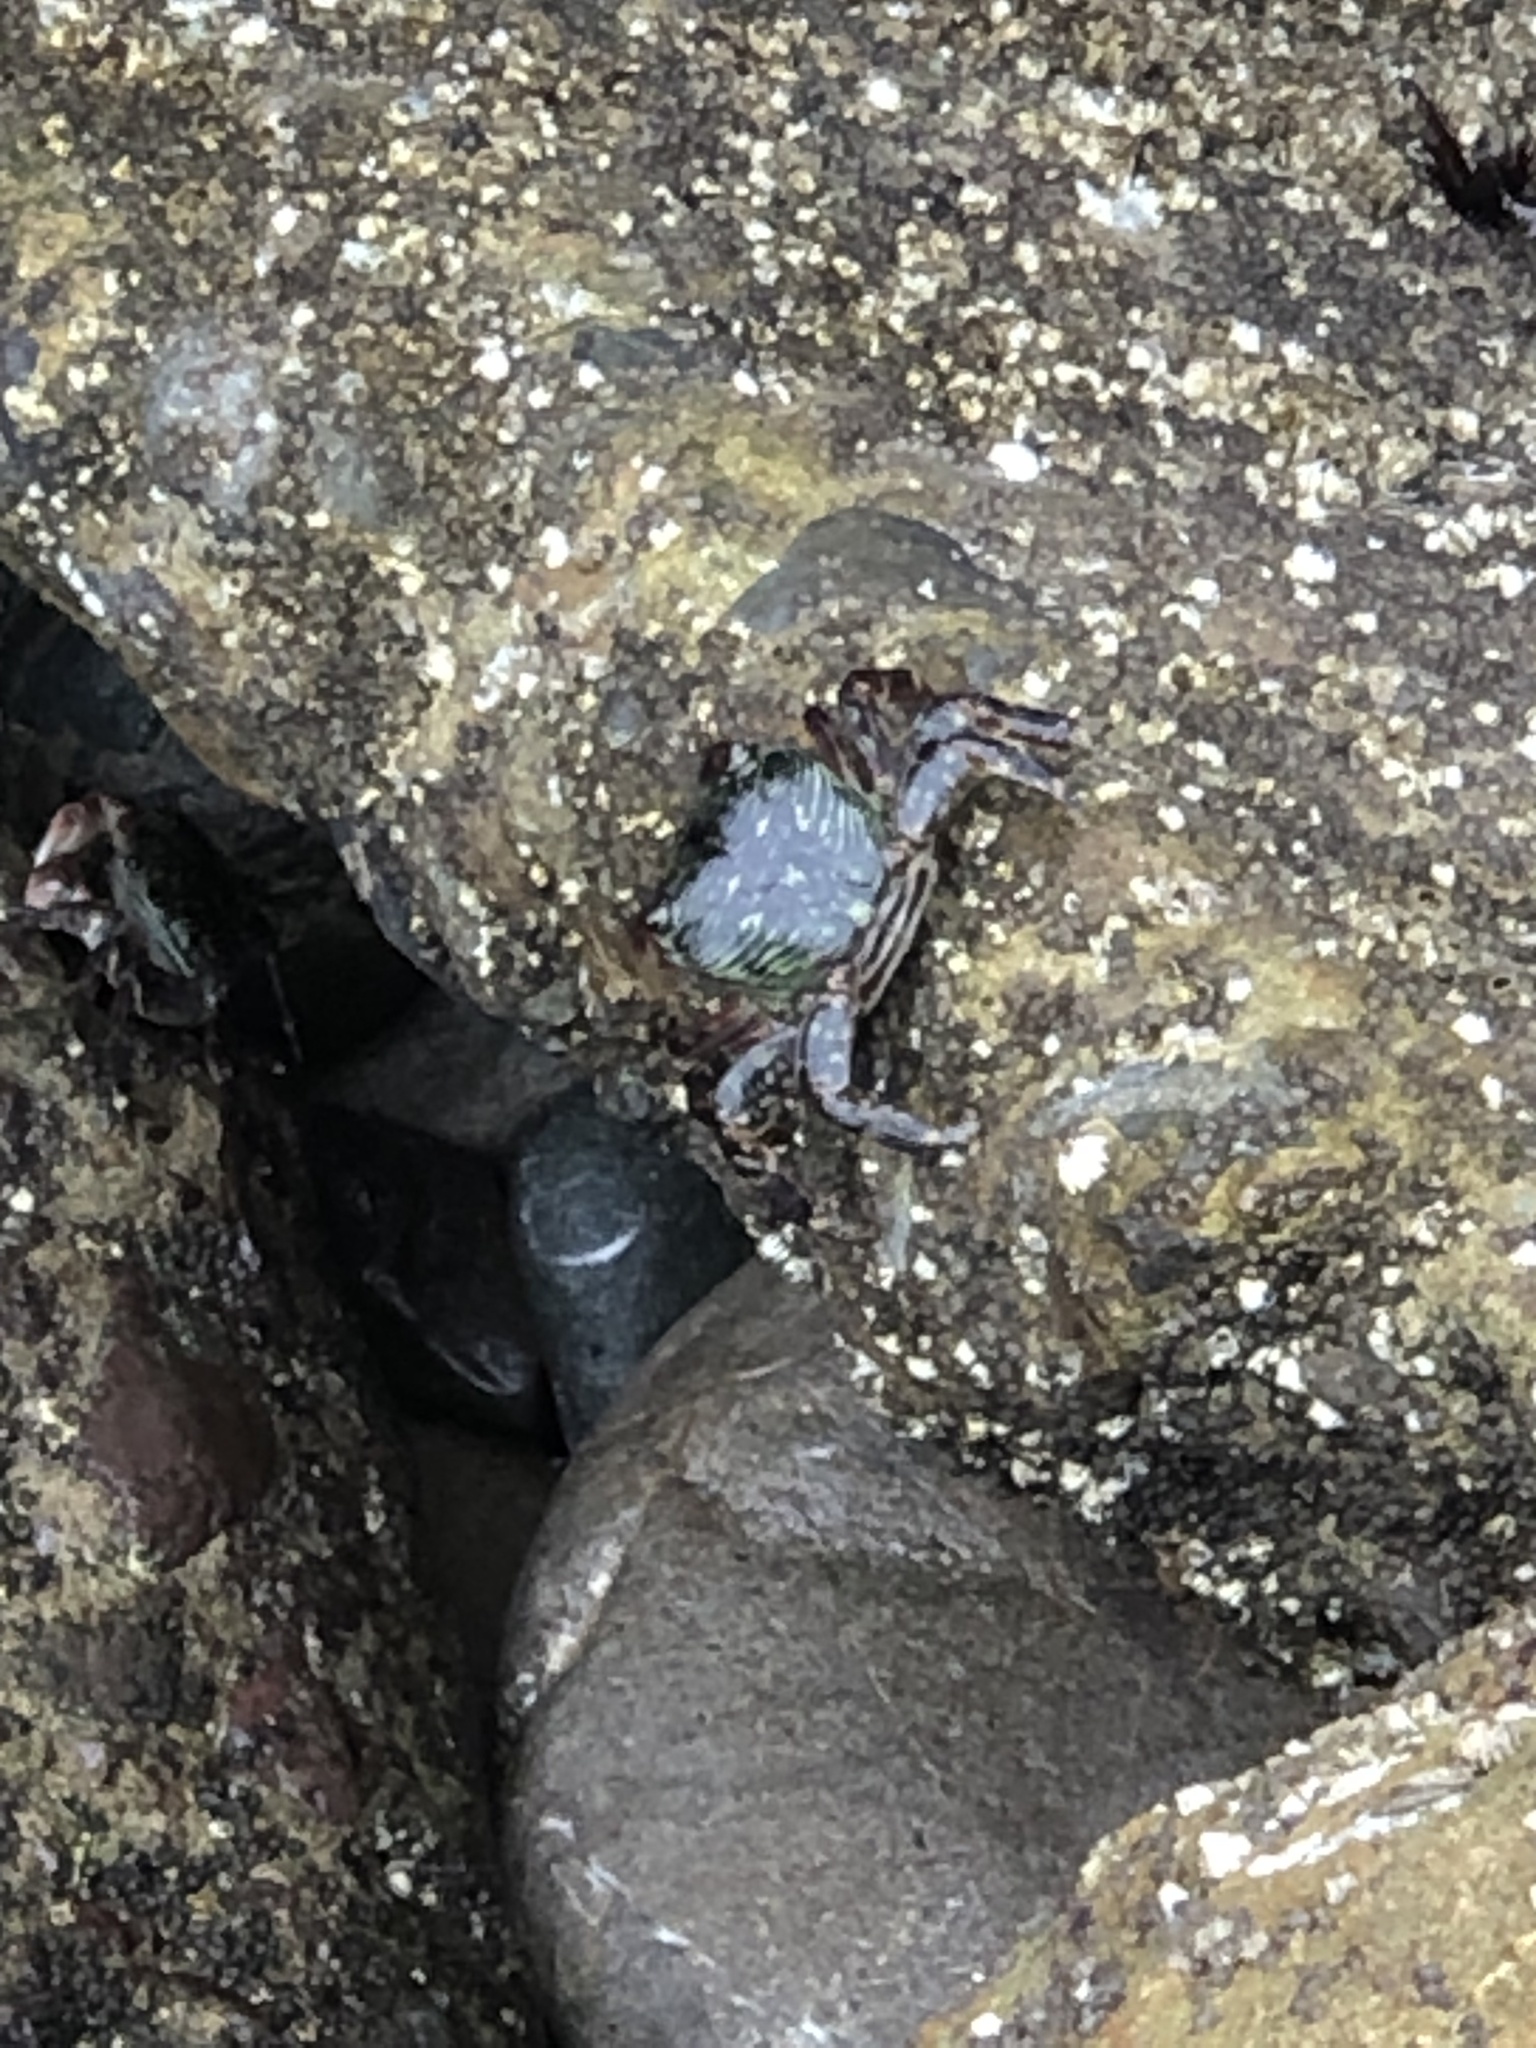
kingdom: Animalia
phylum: Arthropoda
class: Malacostraca
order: Decapoda
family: Grapsidae
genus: Pachygrapsus
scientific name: Pachygrapsus crassipes
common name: Striped shore crab
